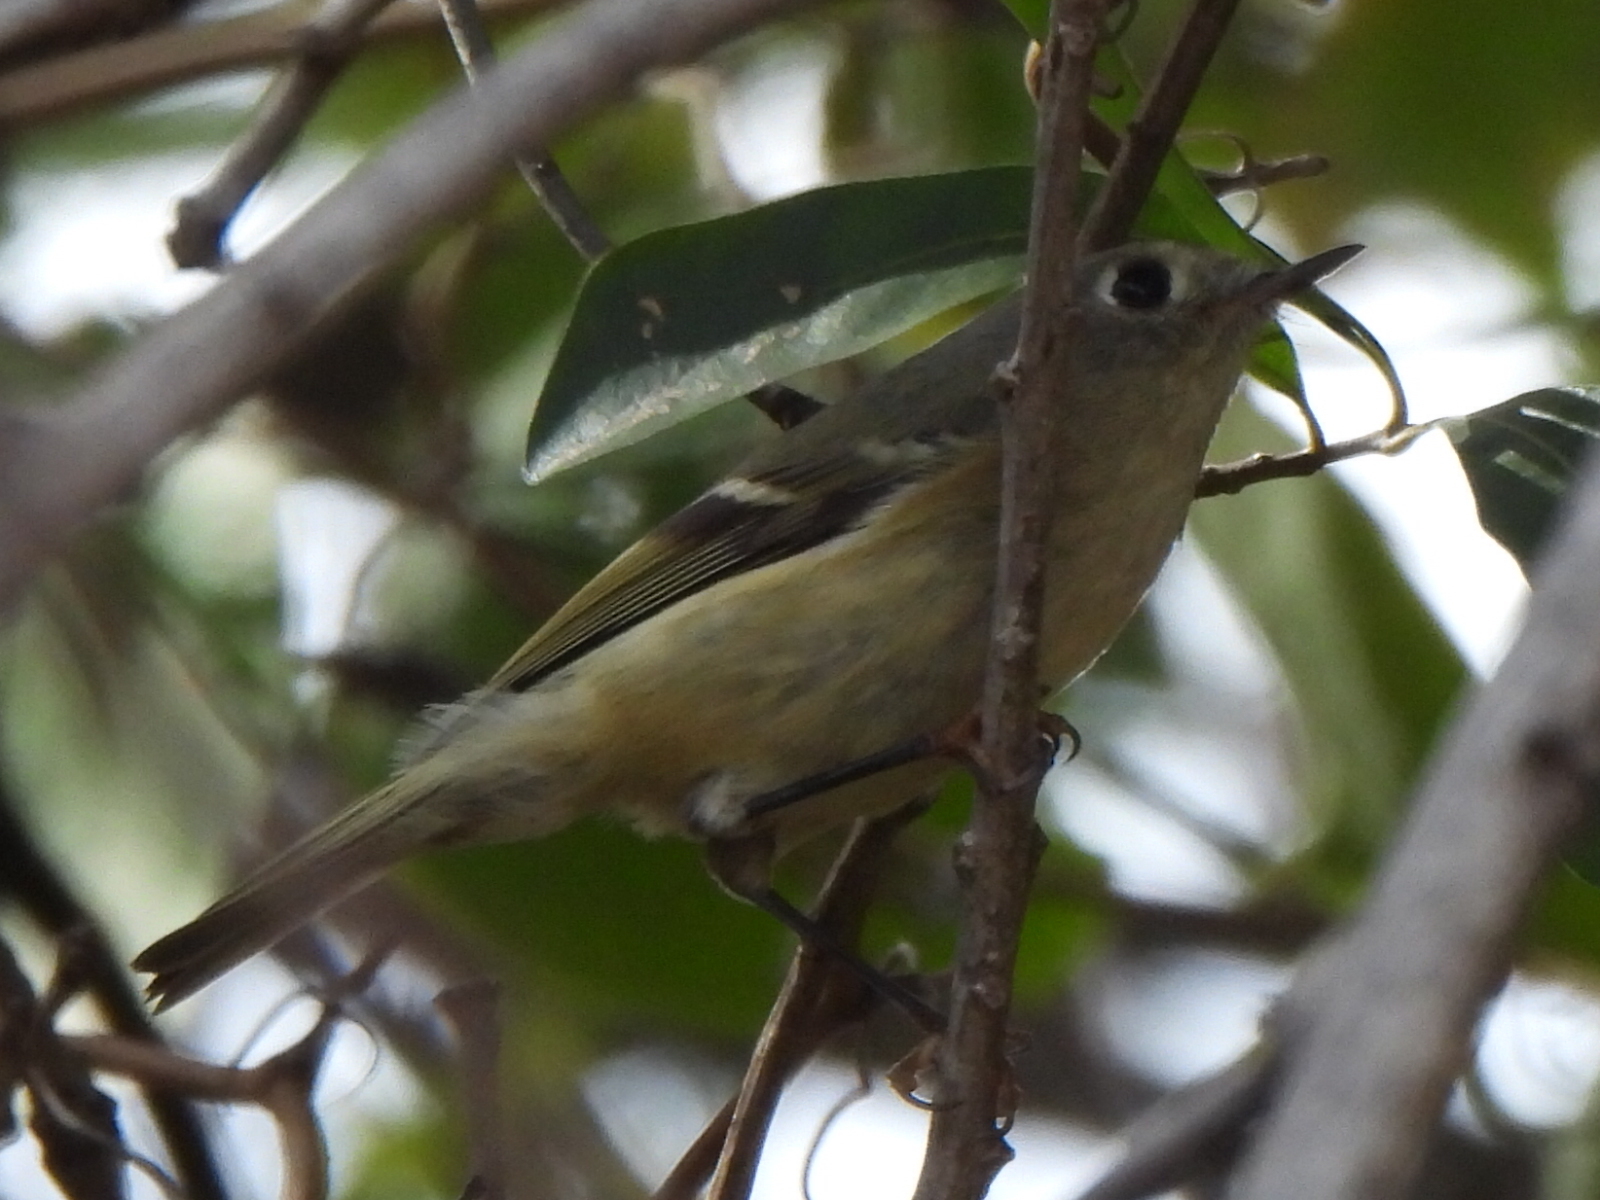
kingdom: Animalia
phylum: Chordata
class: Aves
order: Passeriformes
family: Regulidae
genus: Regulus
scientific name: Regulus calendula
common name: Ruby-crowned kinglet
